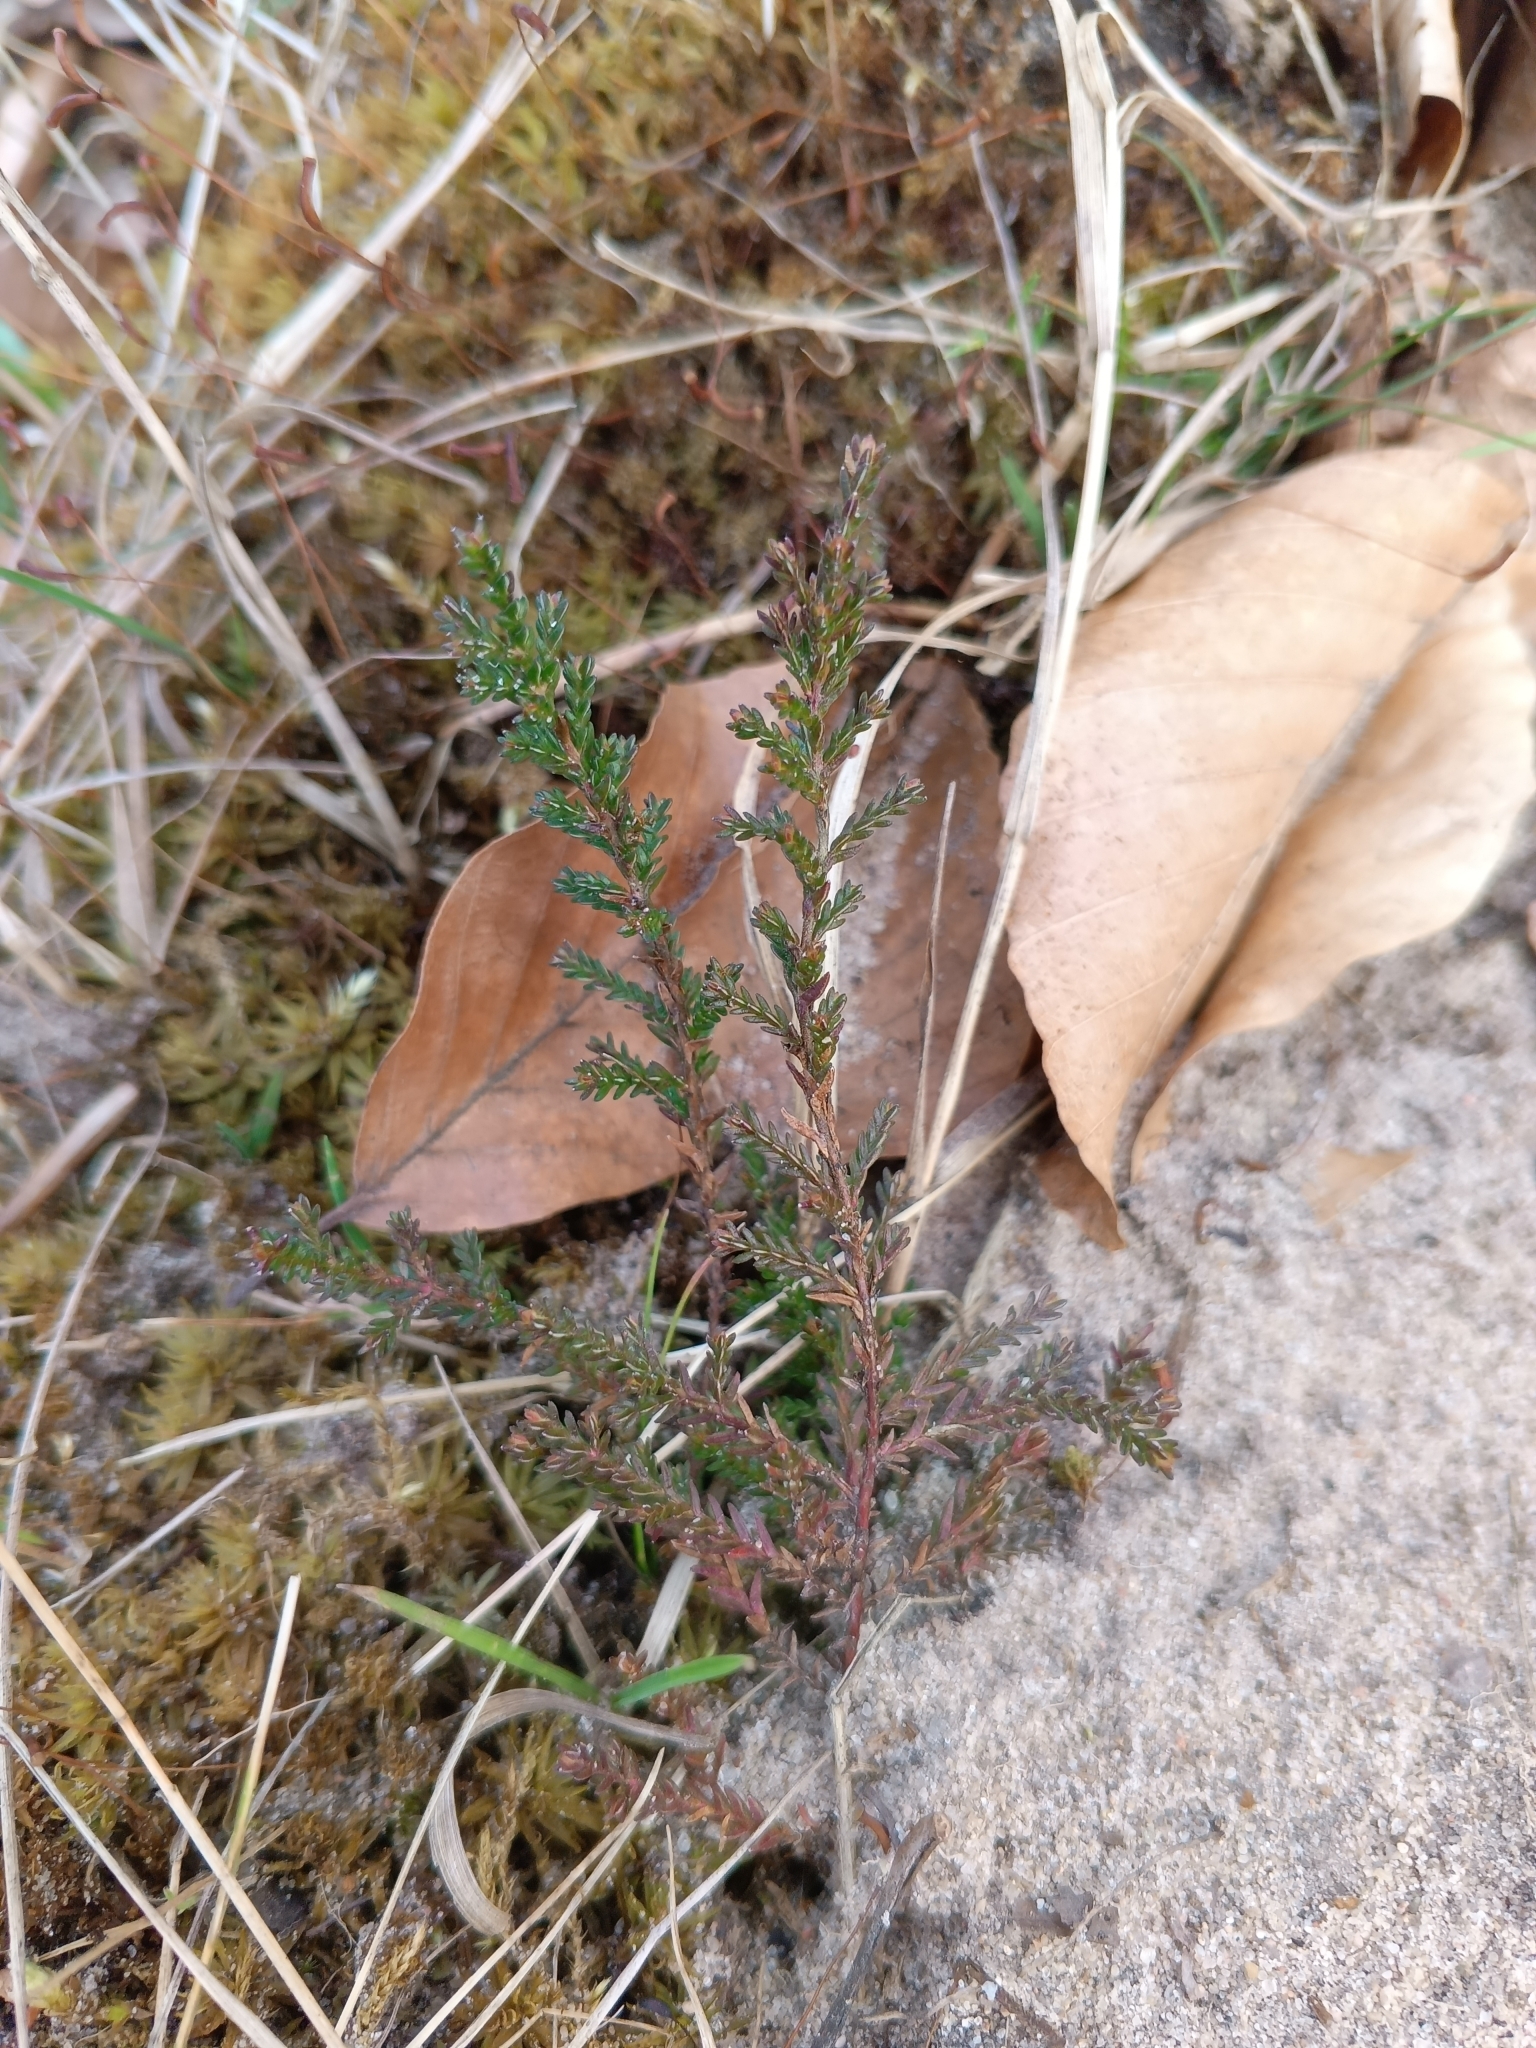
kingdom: Plantae
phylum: Tracheophyta
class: Magnoliopsida
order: Ericales
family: Ericaceae
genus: Calluna
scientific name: Calluna vulgaris
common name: Heather
